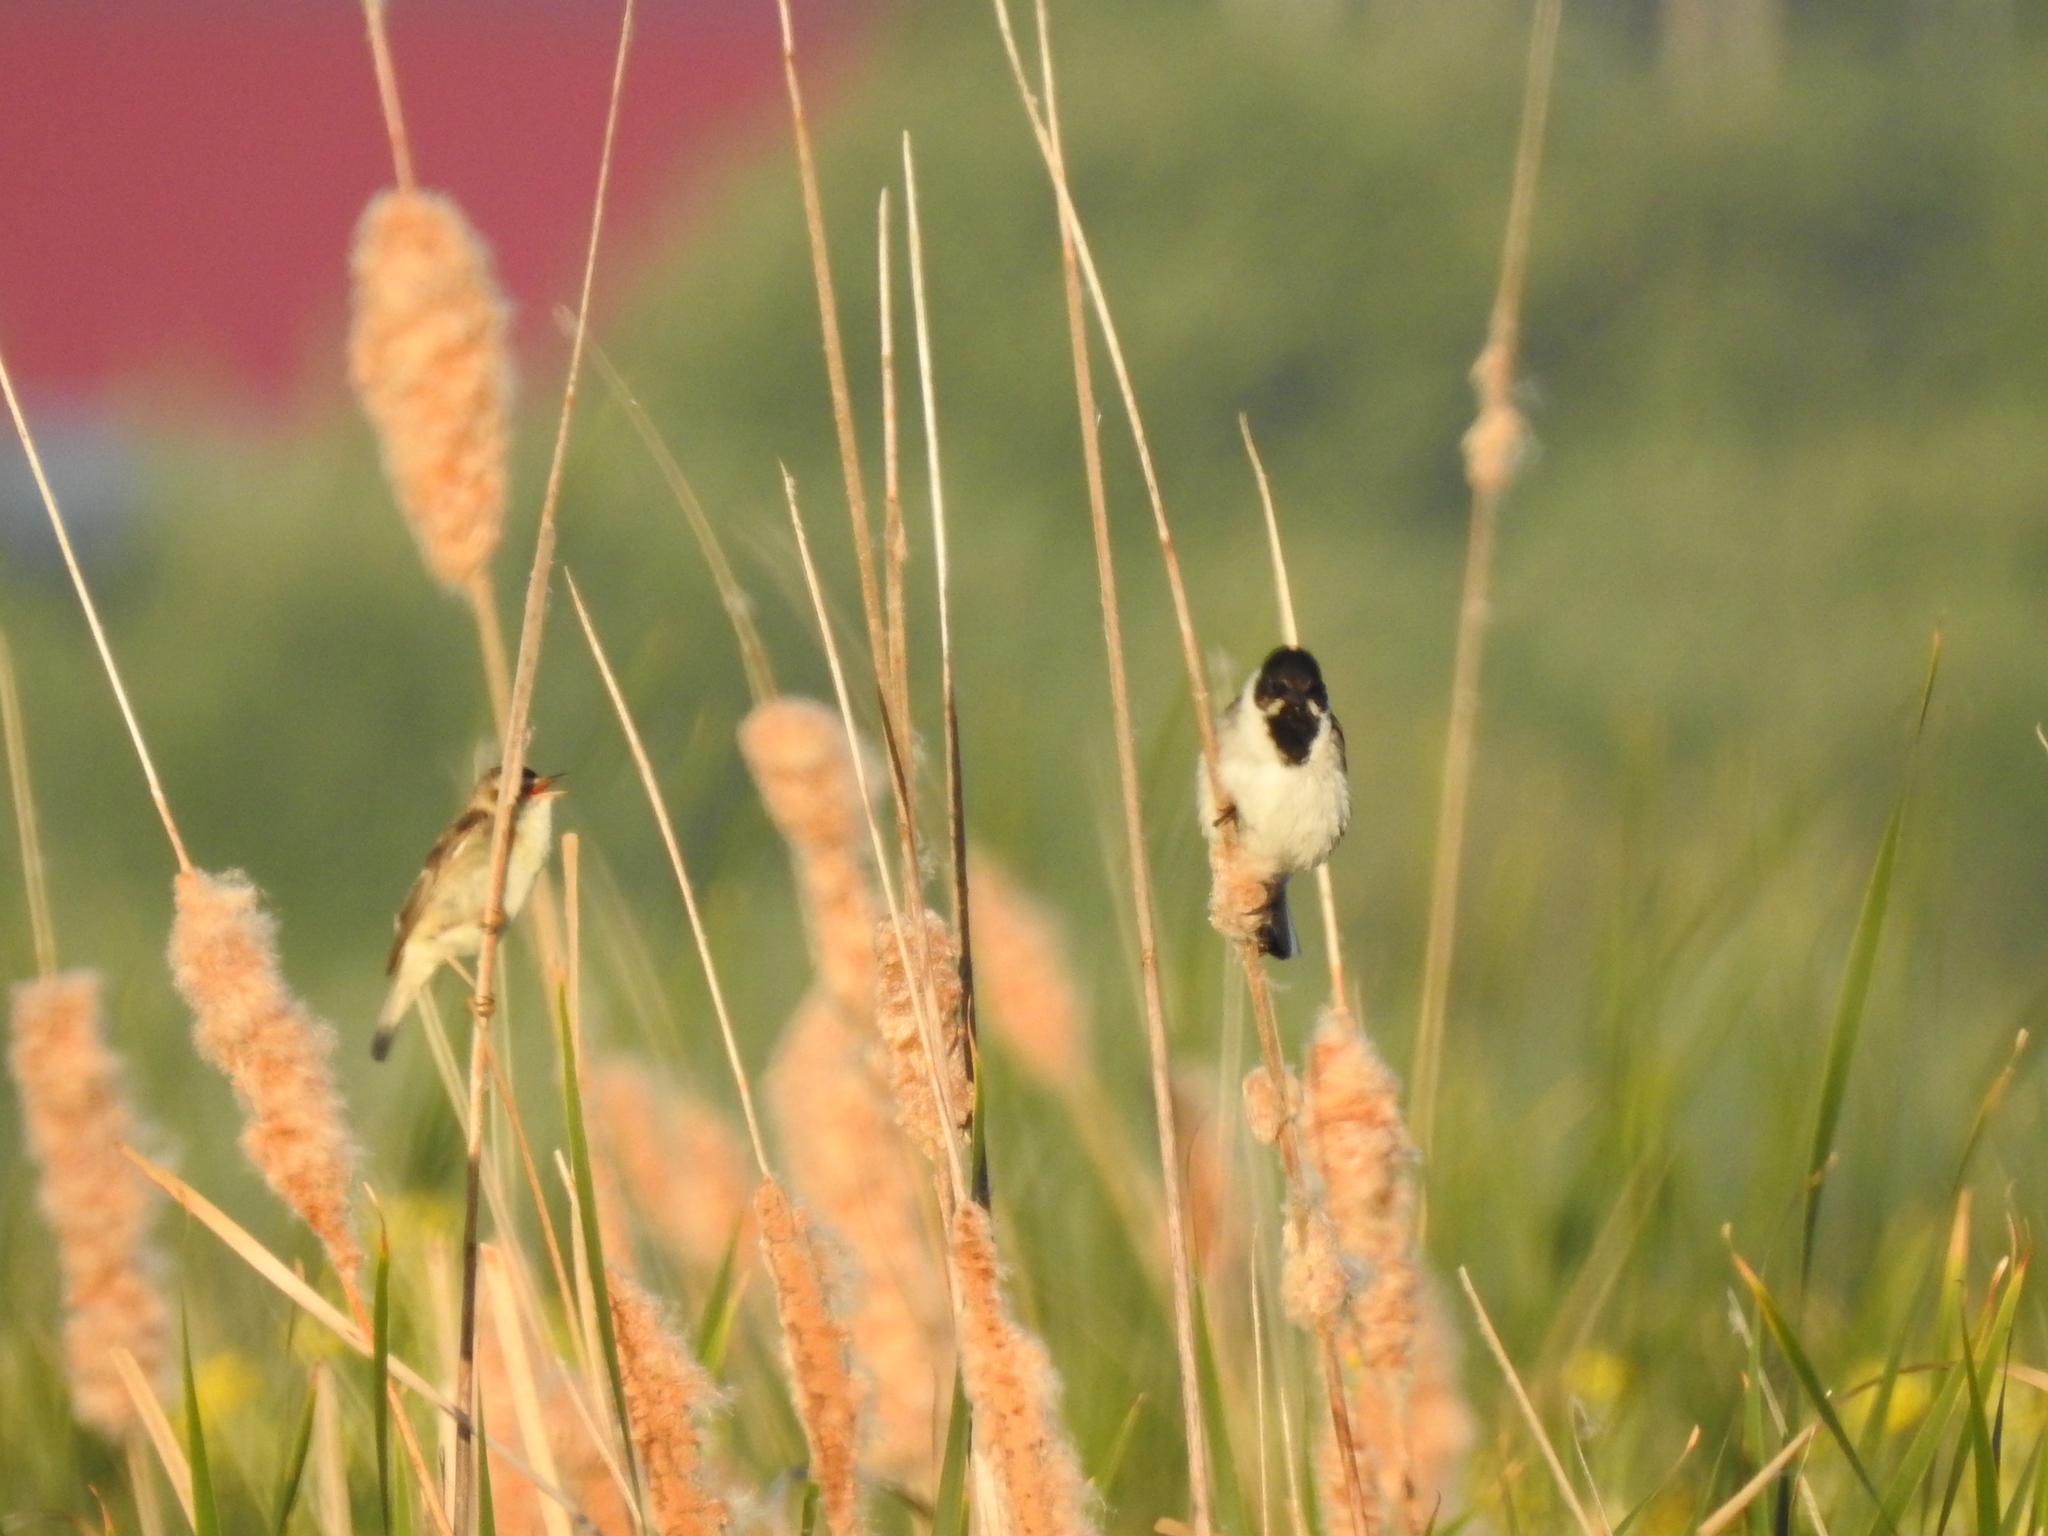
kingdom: Animalia
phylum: Chordata
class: Aves
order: Passeriformes
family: Emberizidae
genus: Emberiza
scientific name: Emberiza schoeniclus
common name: Reed bunting
